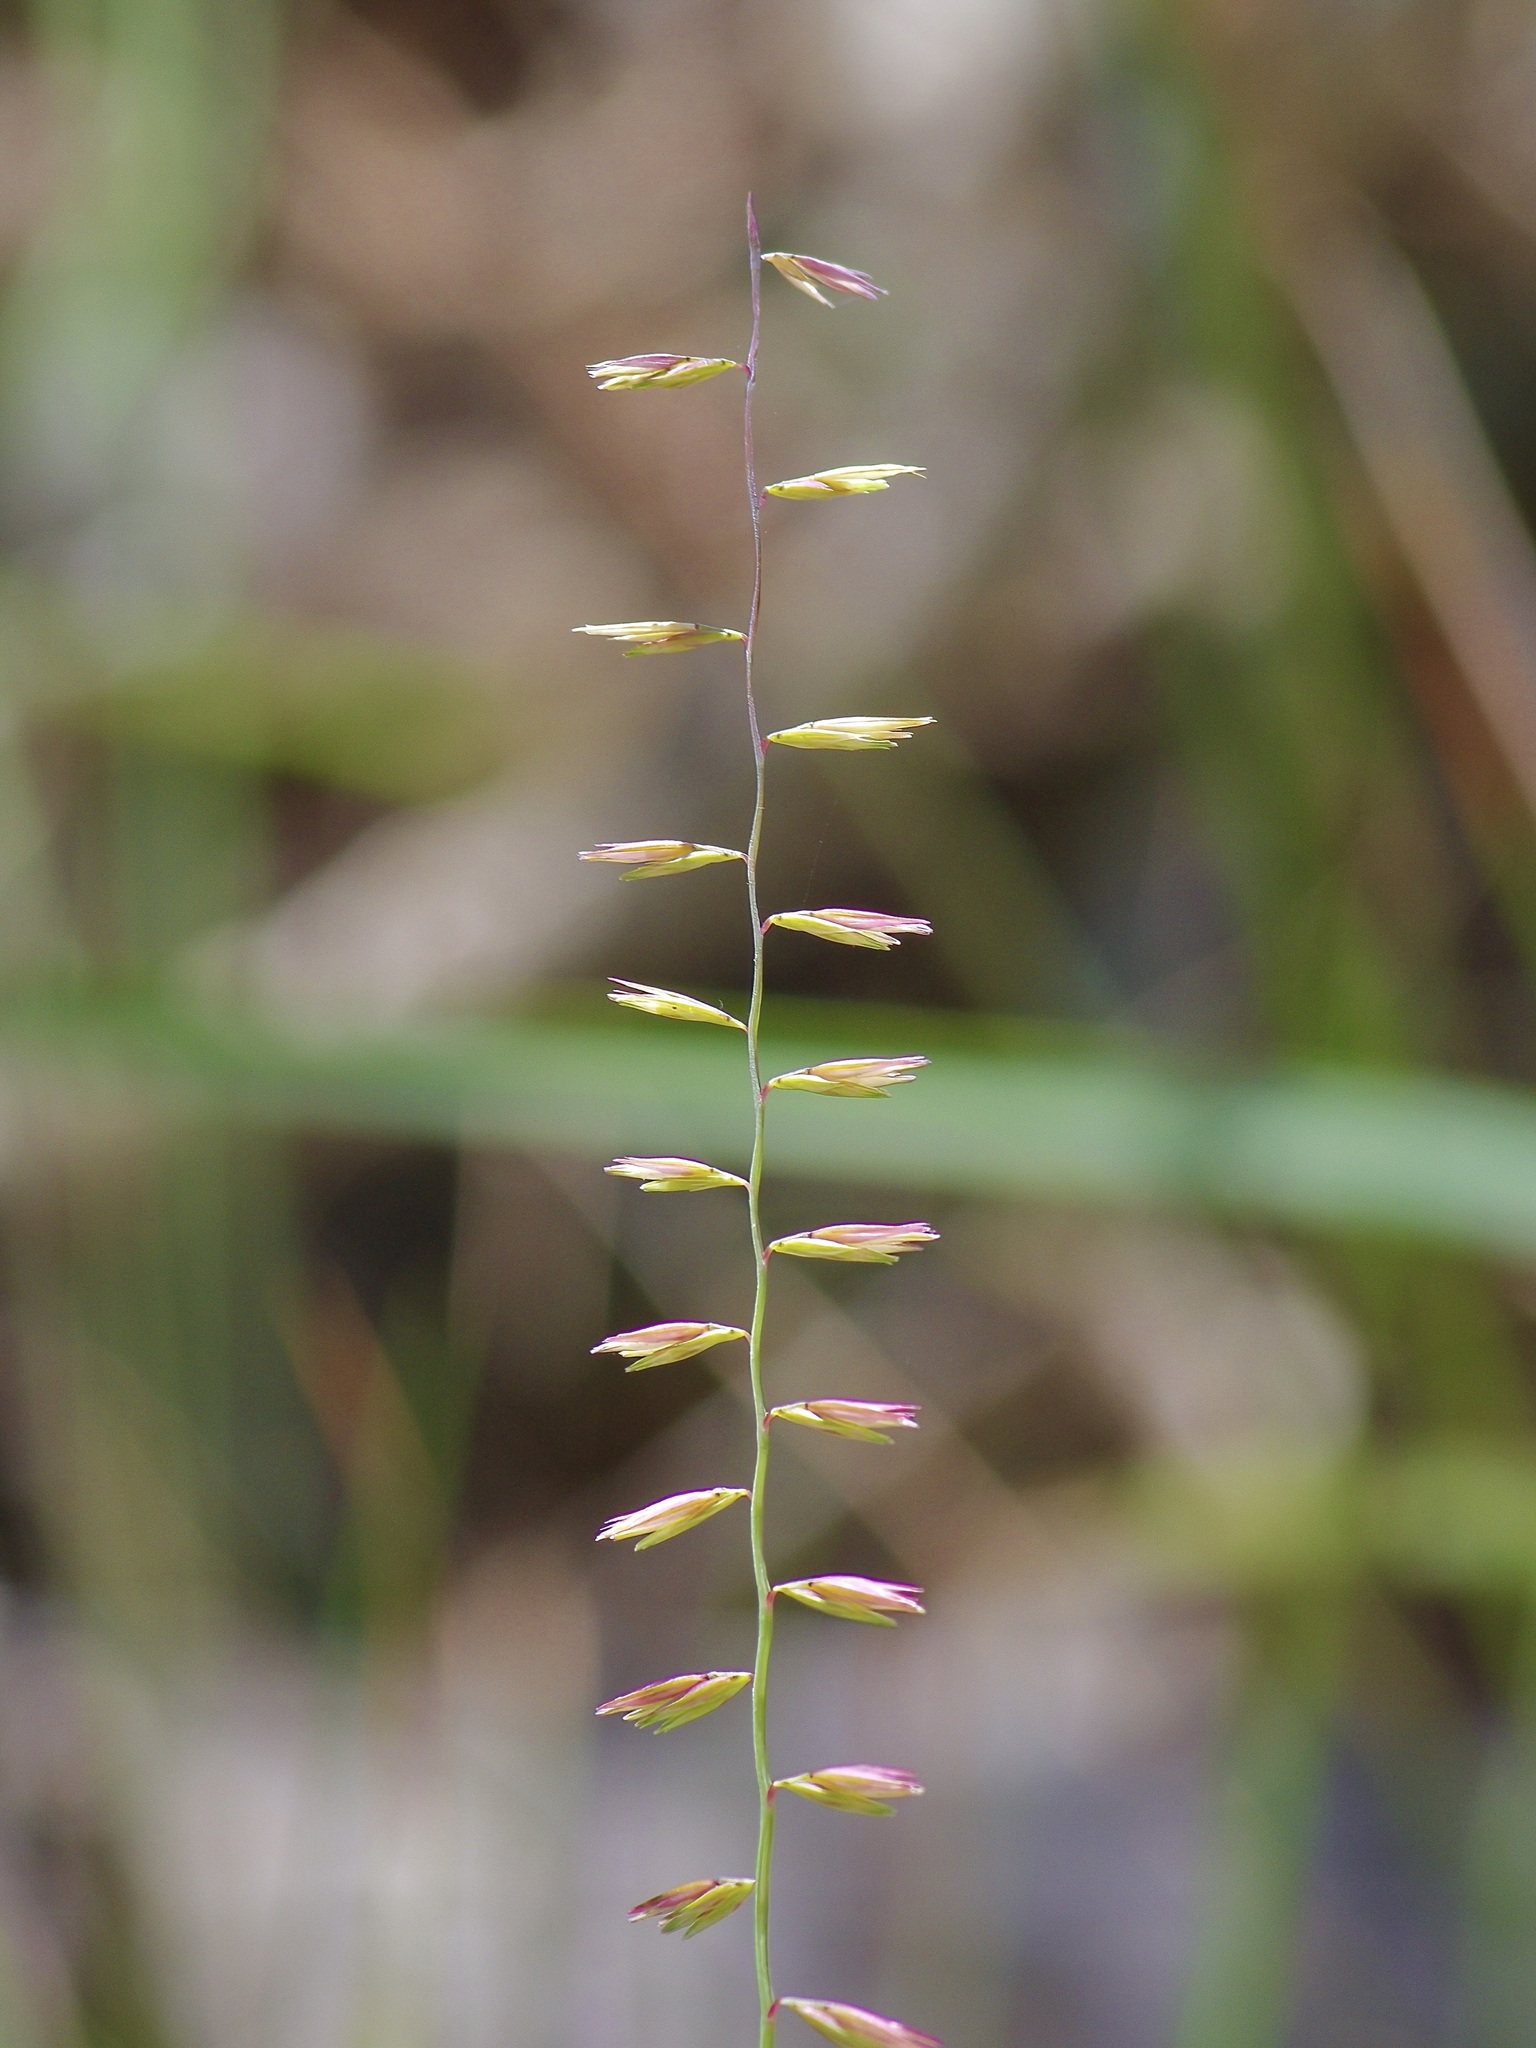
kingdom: Plantae
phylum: Tracheophyta
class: Liliopsida
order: Poales
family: Poaceae
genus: Bouteloua
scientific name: Bouteloua curtipendula
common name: Side-oats grama
